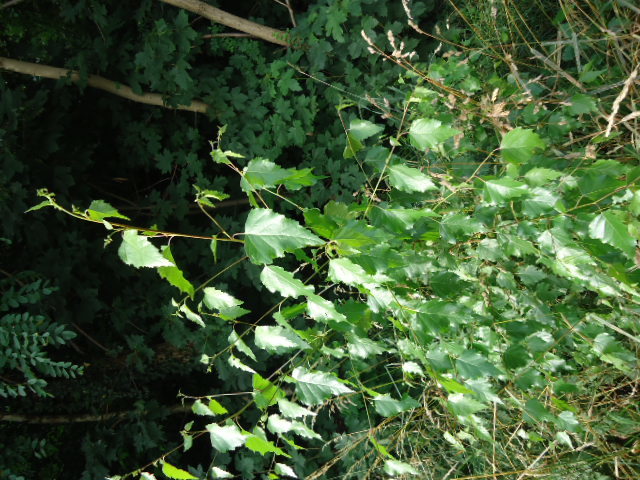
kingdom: Plantae
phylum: Tracheophyta
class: Magnoliopsida
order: Fagales
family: Betulaceae
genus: Betula
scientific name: Betula pendula
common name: Silver birch
